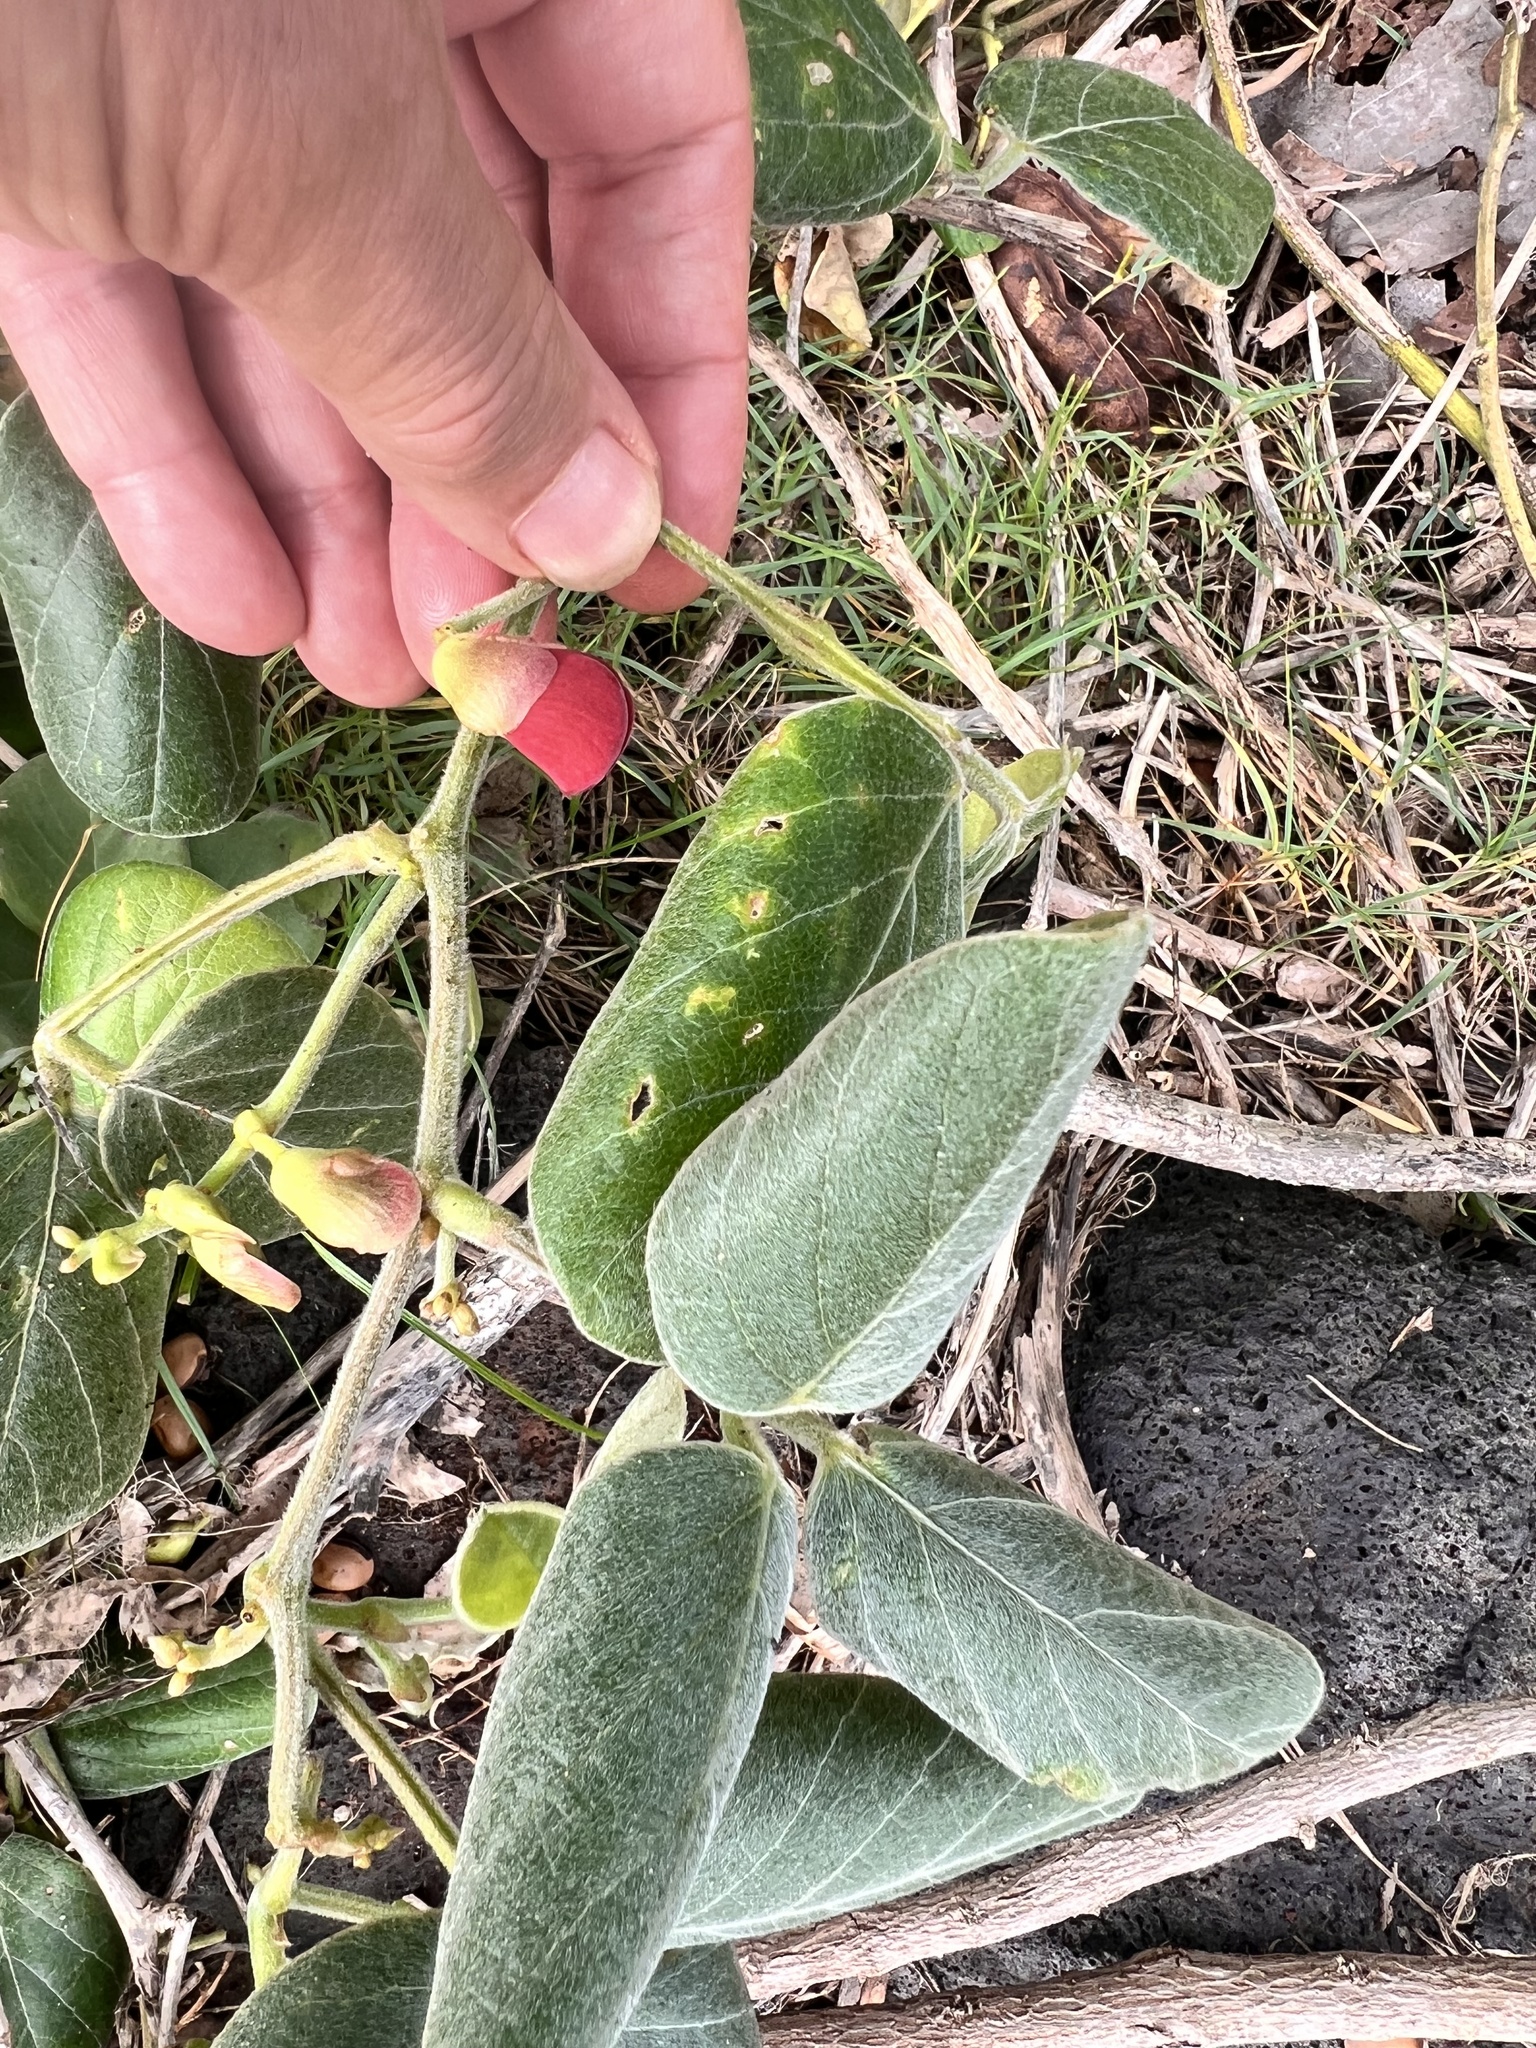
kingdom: Plantae
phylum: Tracheophyta
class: Magnoliopsida
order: Fabales
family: Fabaceae
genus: Canavalia
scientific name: Canavalia sericea
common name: Silky jackbean
